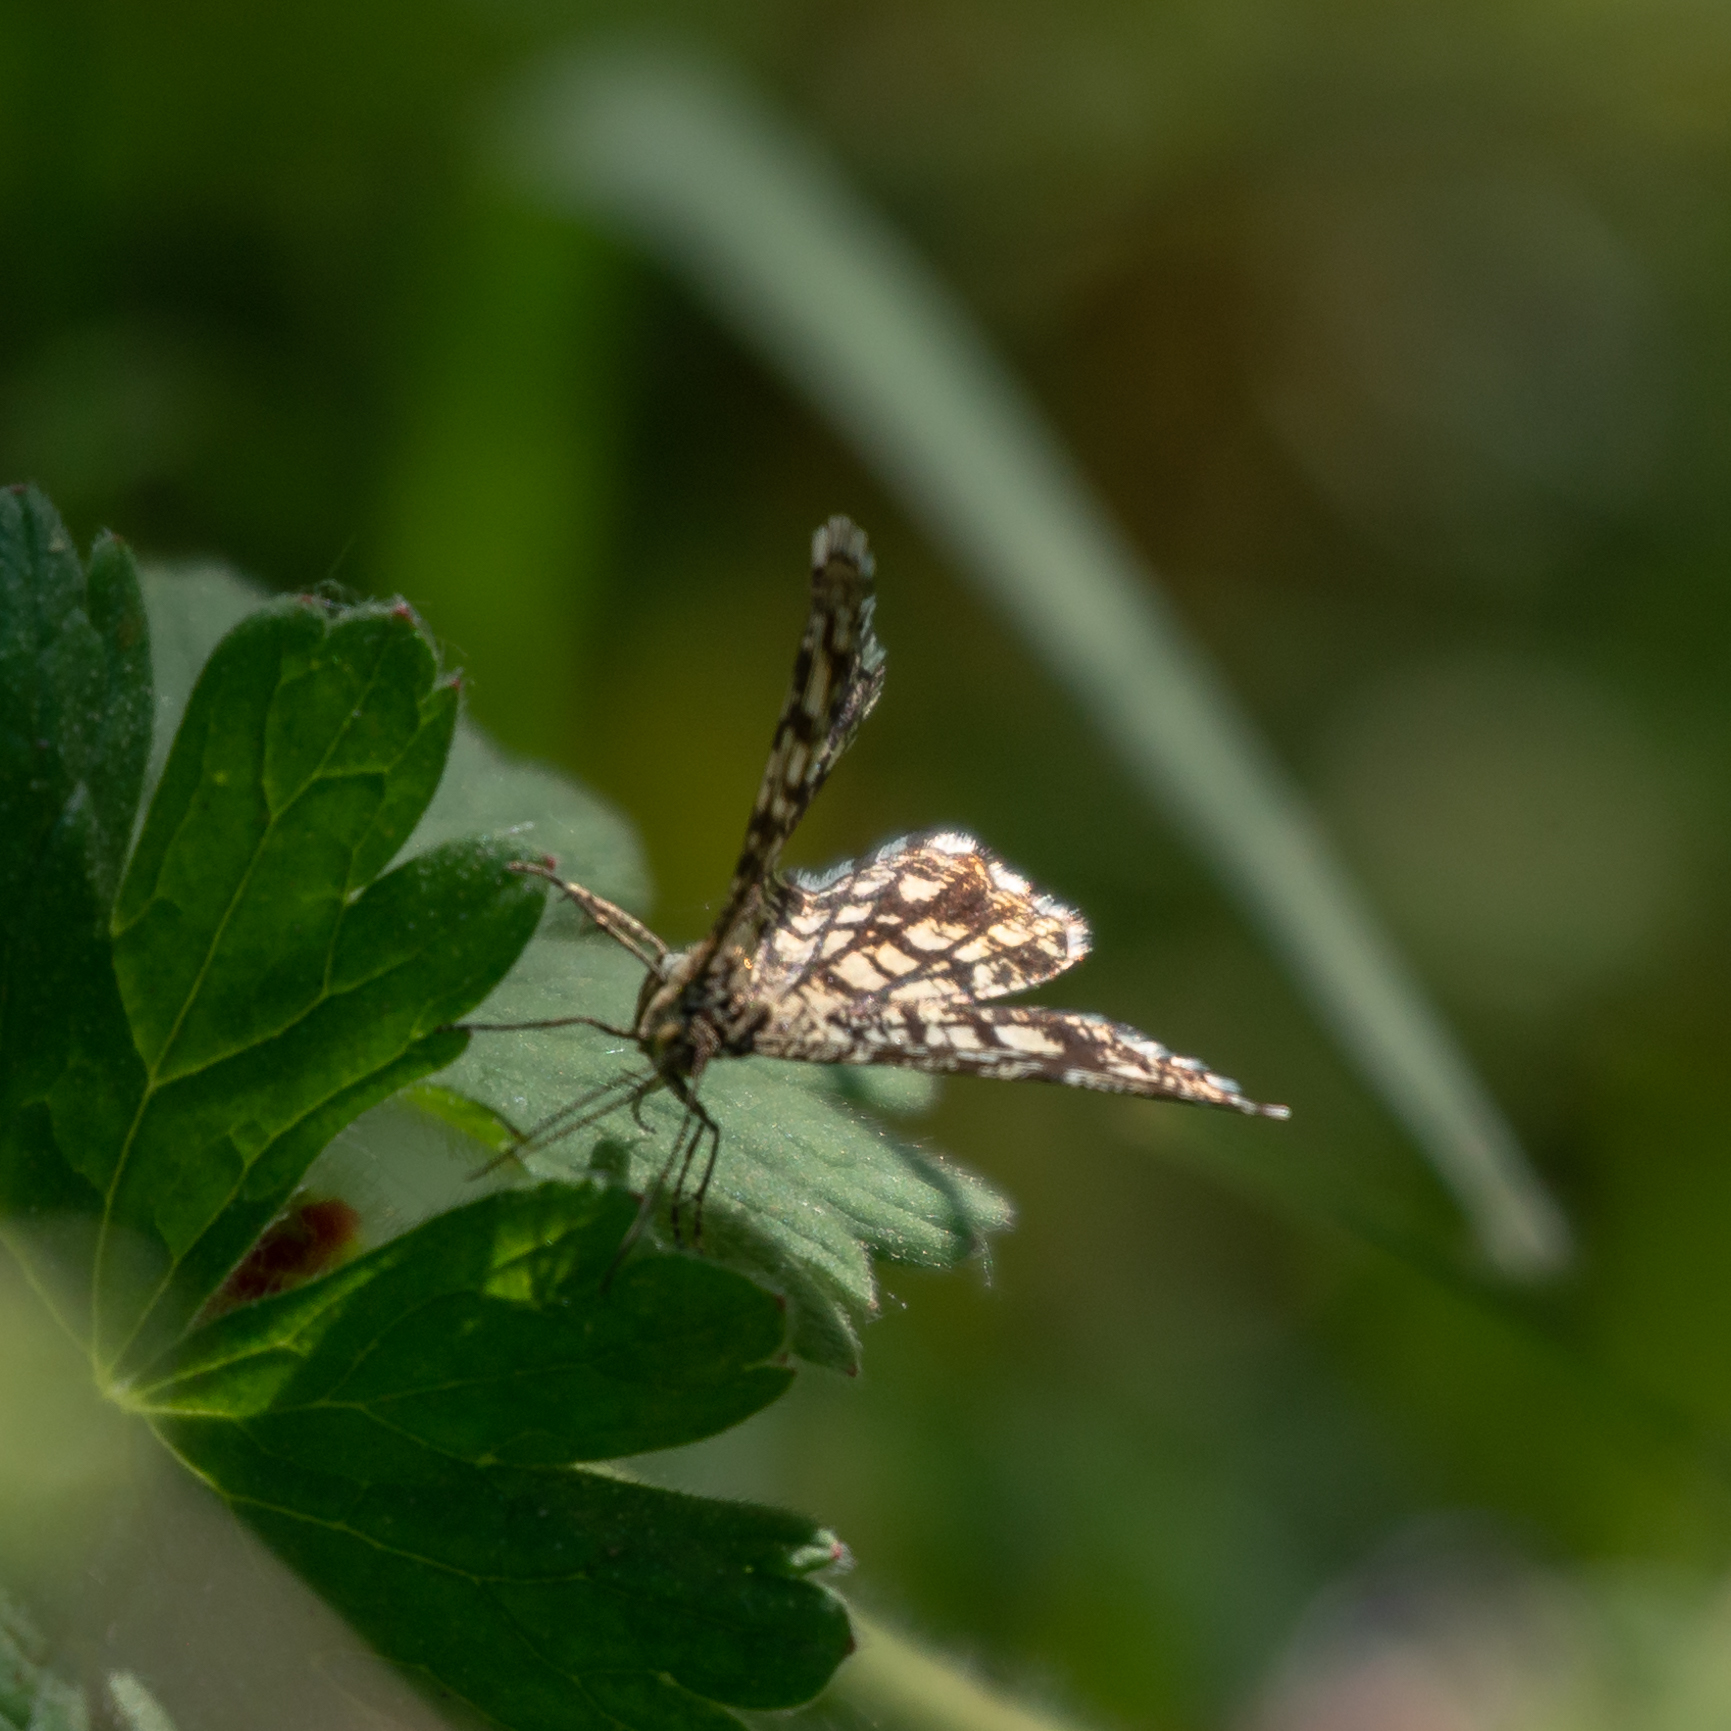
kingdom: Animalia
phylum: Arthropoda
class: Insecta
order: Lepidoptera
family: Geometridae
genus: Chiasmia
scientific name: Chiasmia clathrata
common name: Latticed heath
